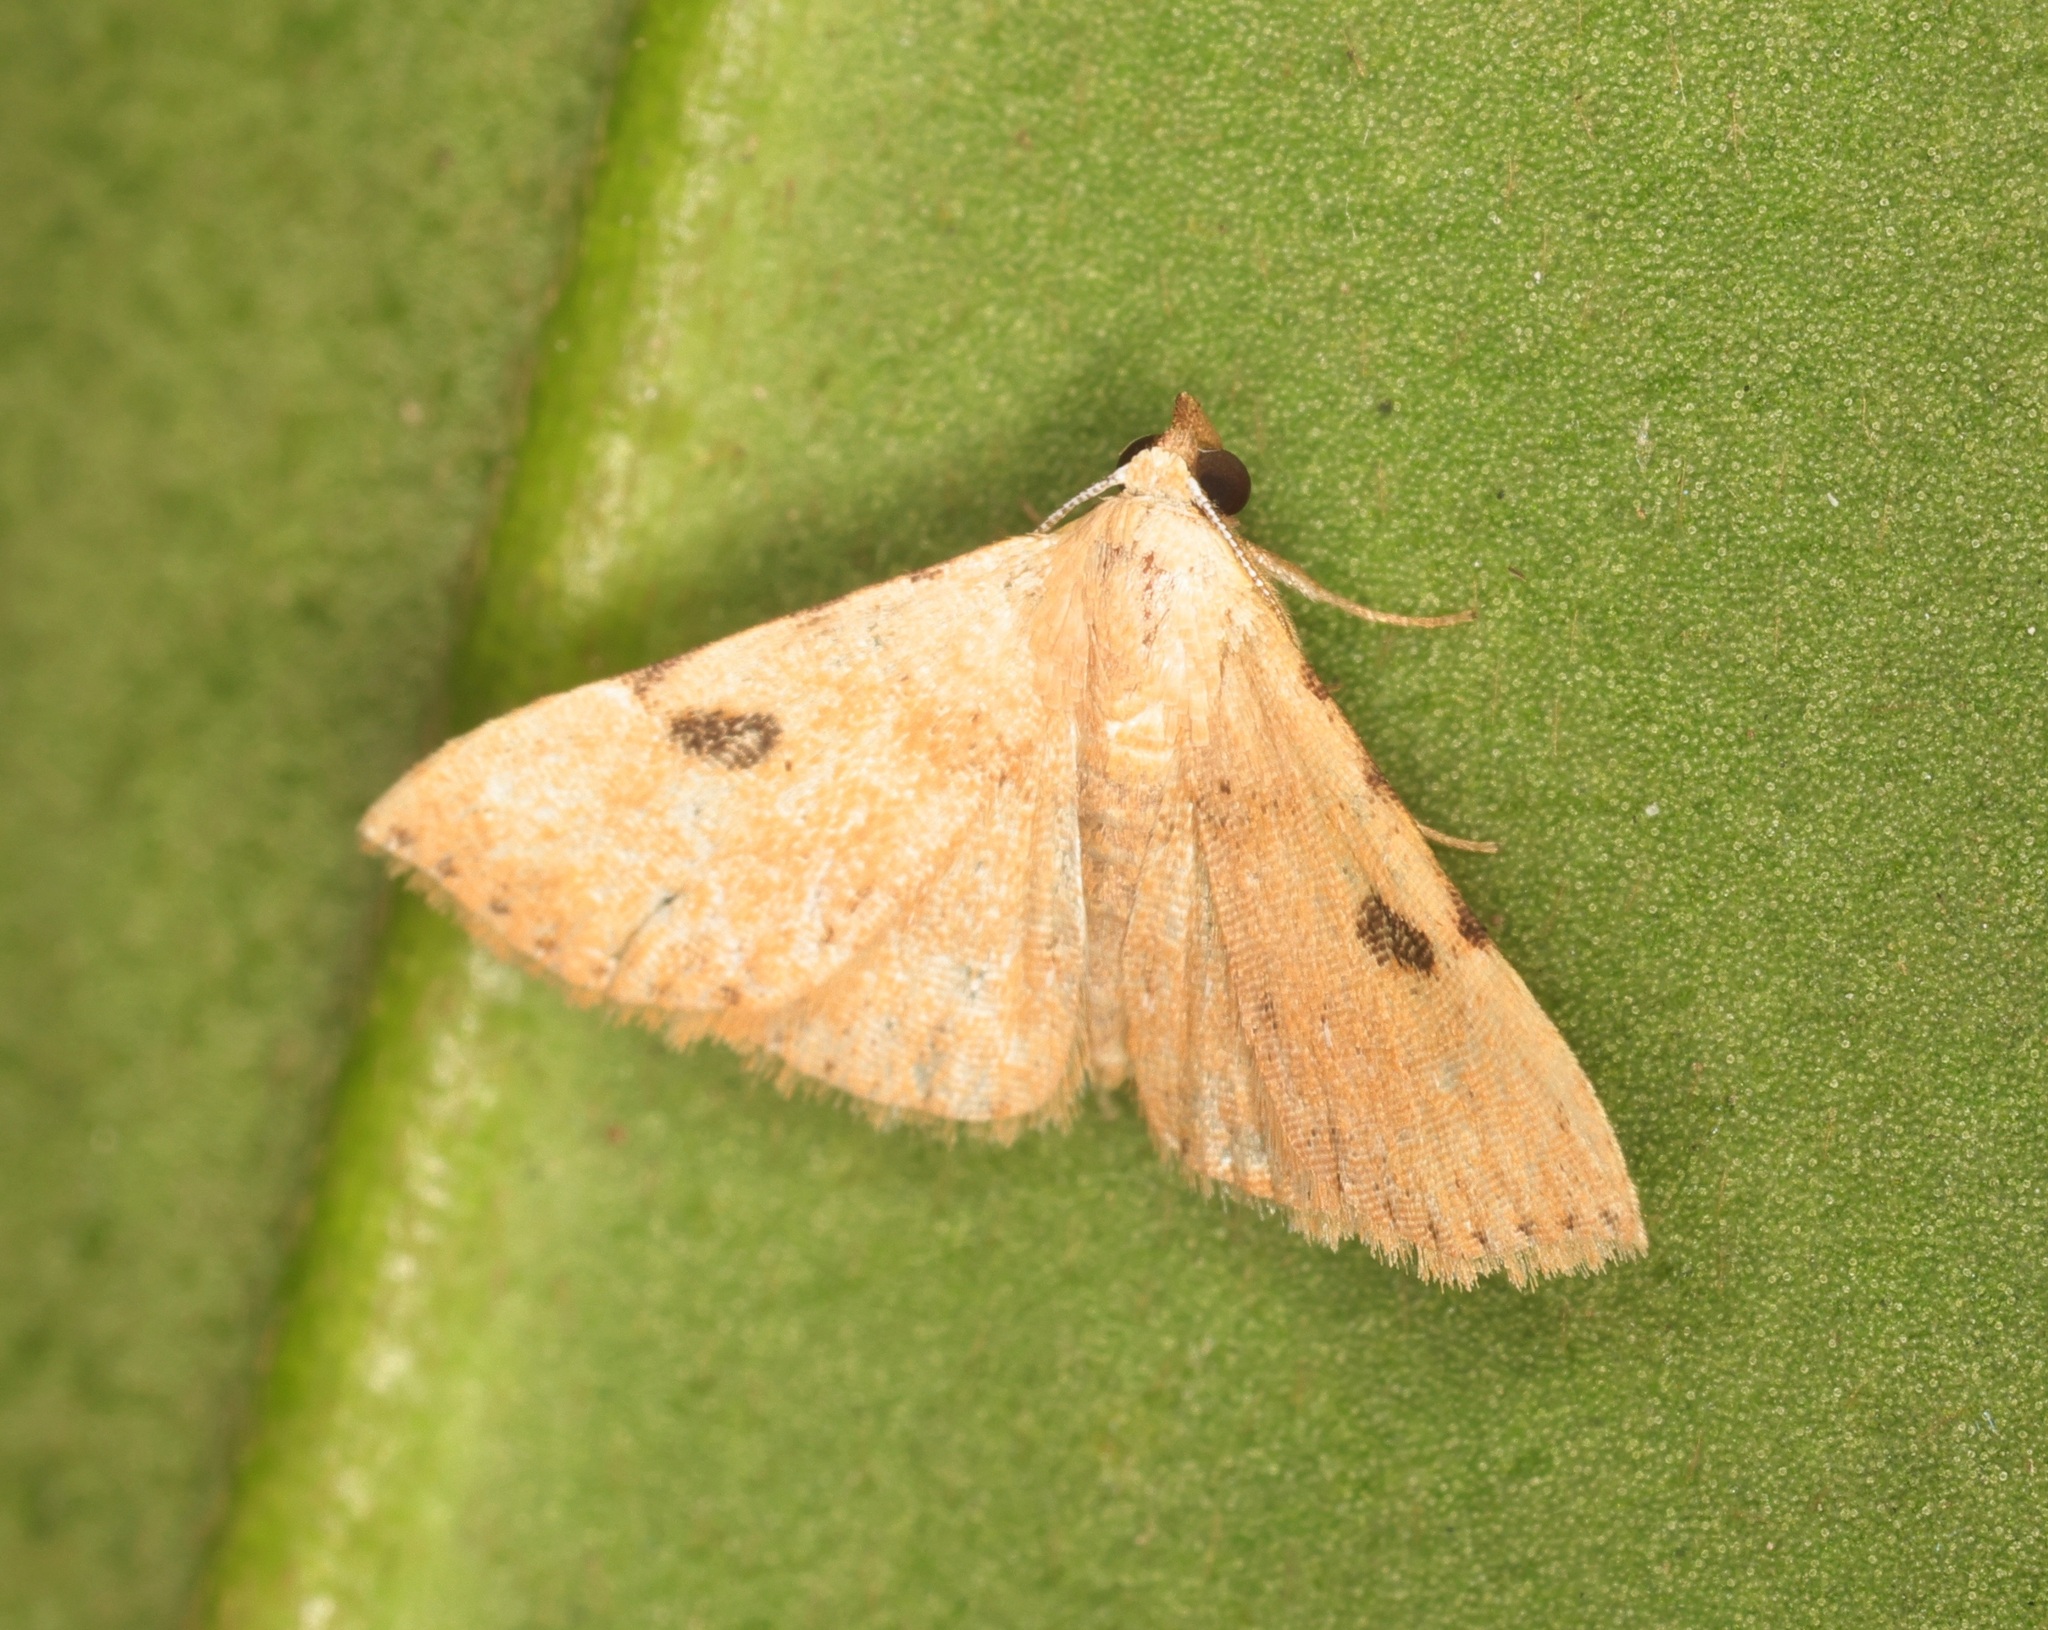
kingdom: Animalia
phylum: Arthropoda
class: Insecta
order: Lepidoptera
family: Erebidae
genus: Corgatha
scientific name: Corgatha trichogyia
